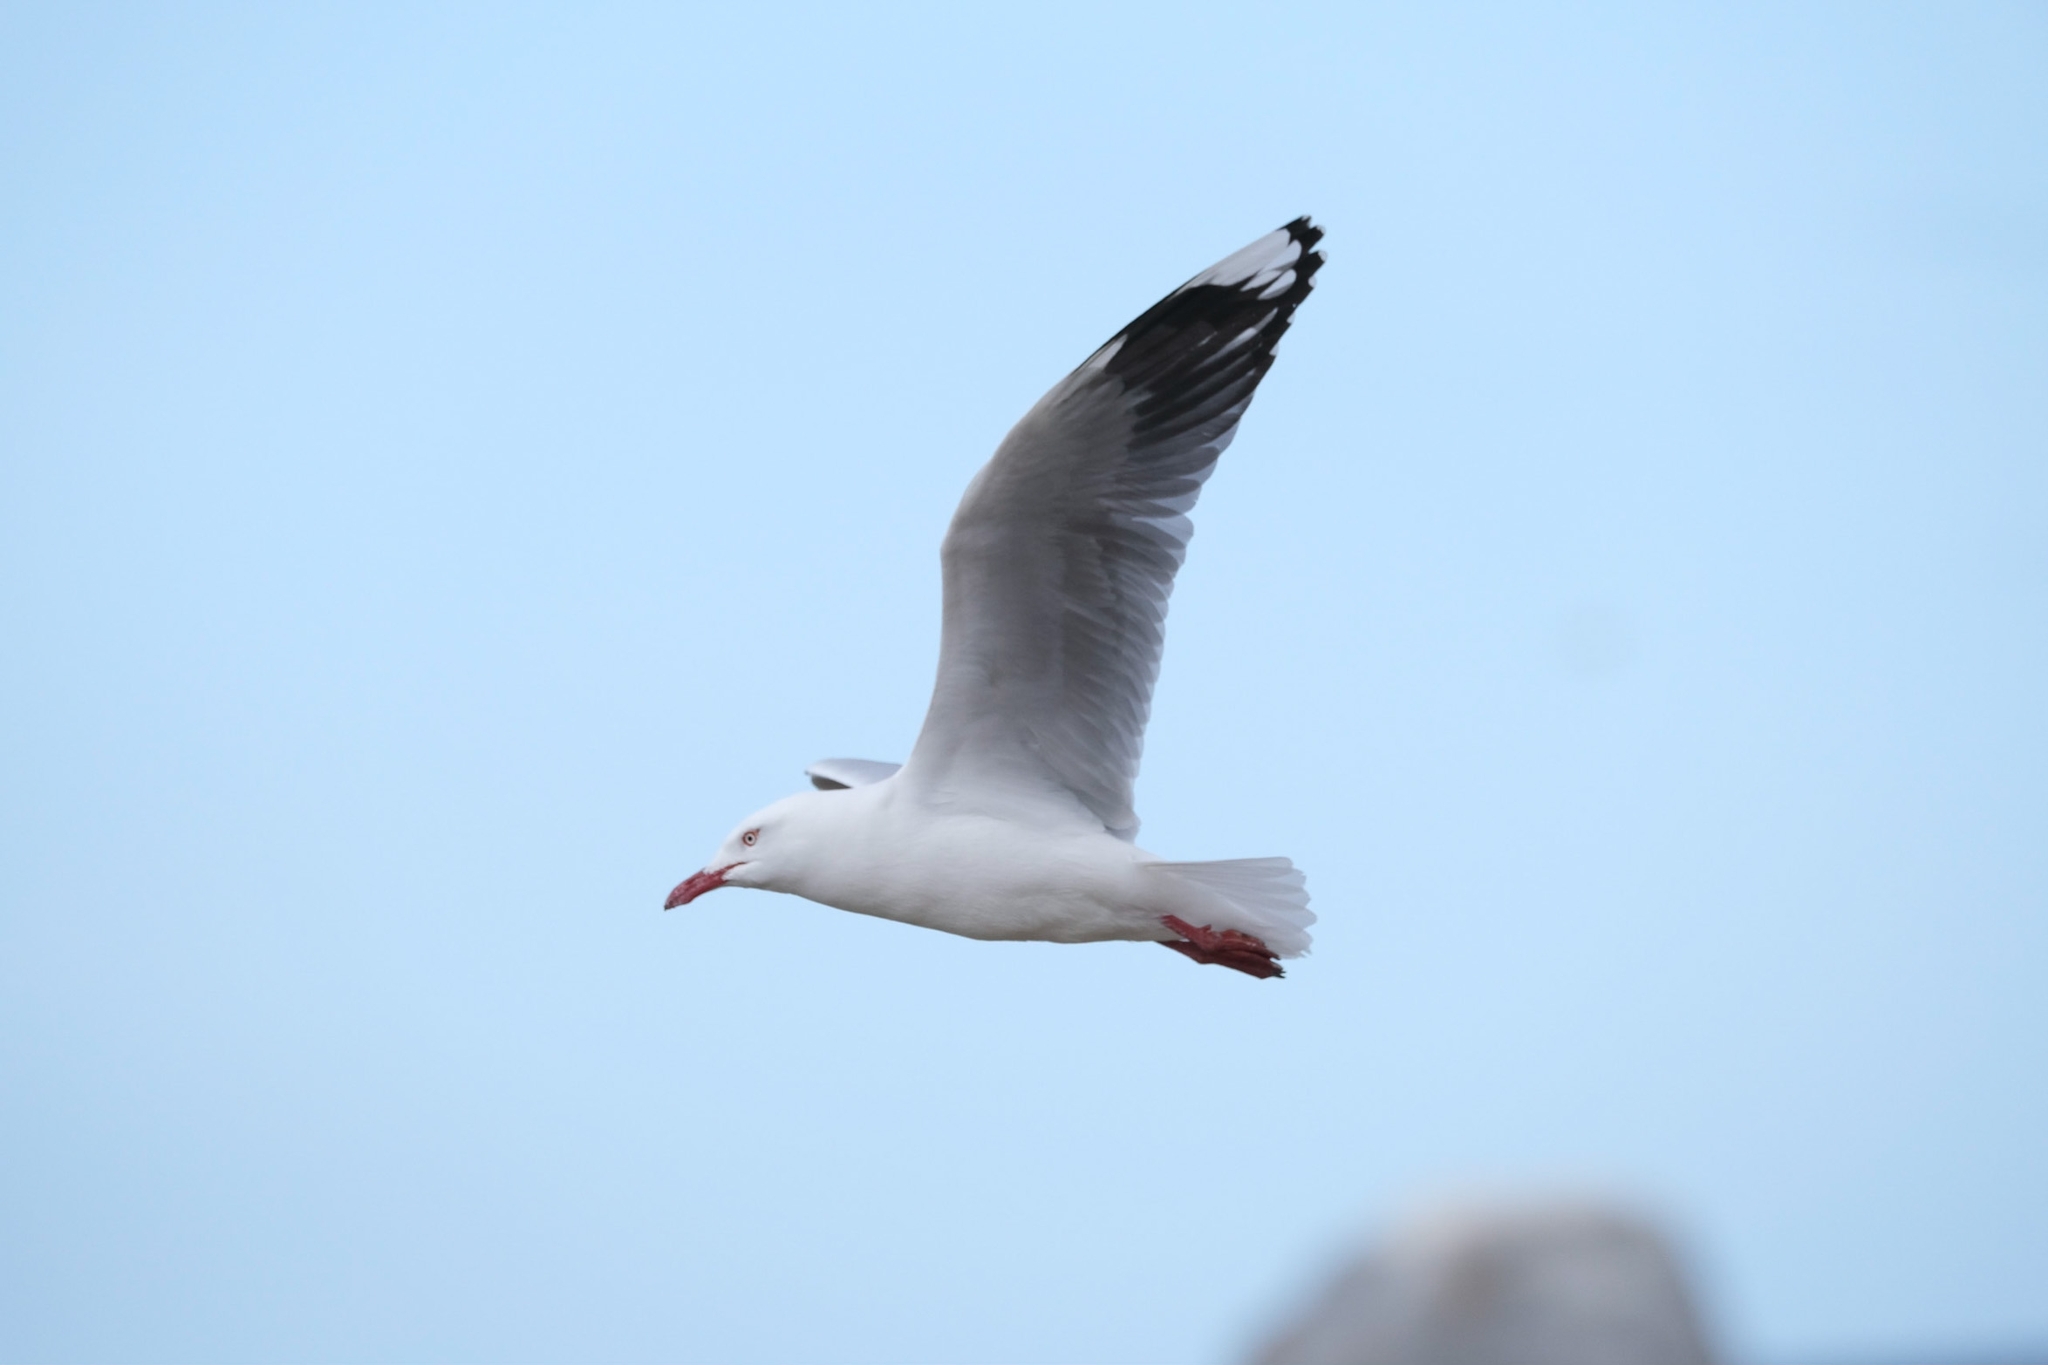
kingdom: Animalia
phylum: Chordata
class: Aves
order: Charadriiformes
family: Laridae
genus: Chroicocephalus
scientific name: Chroicocephalus novaehollandiae
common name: Silver gull
